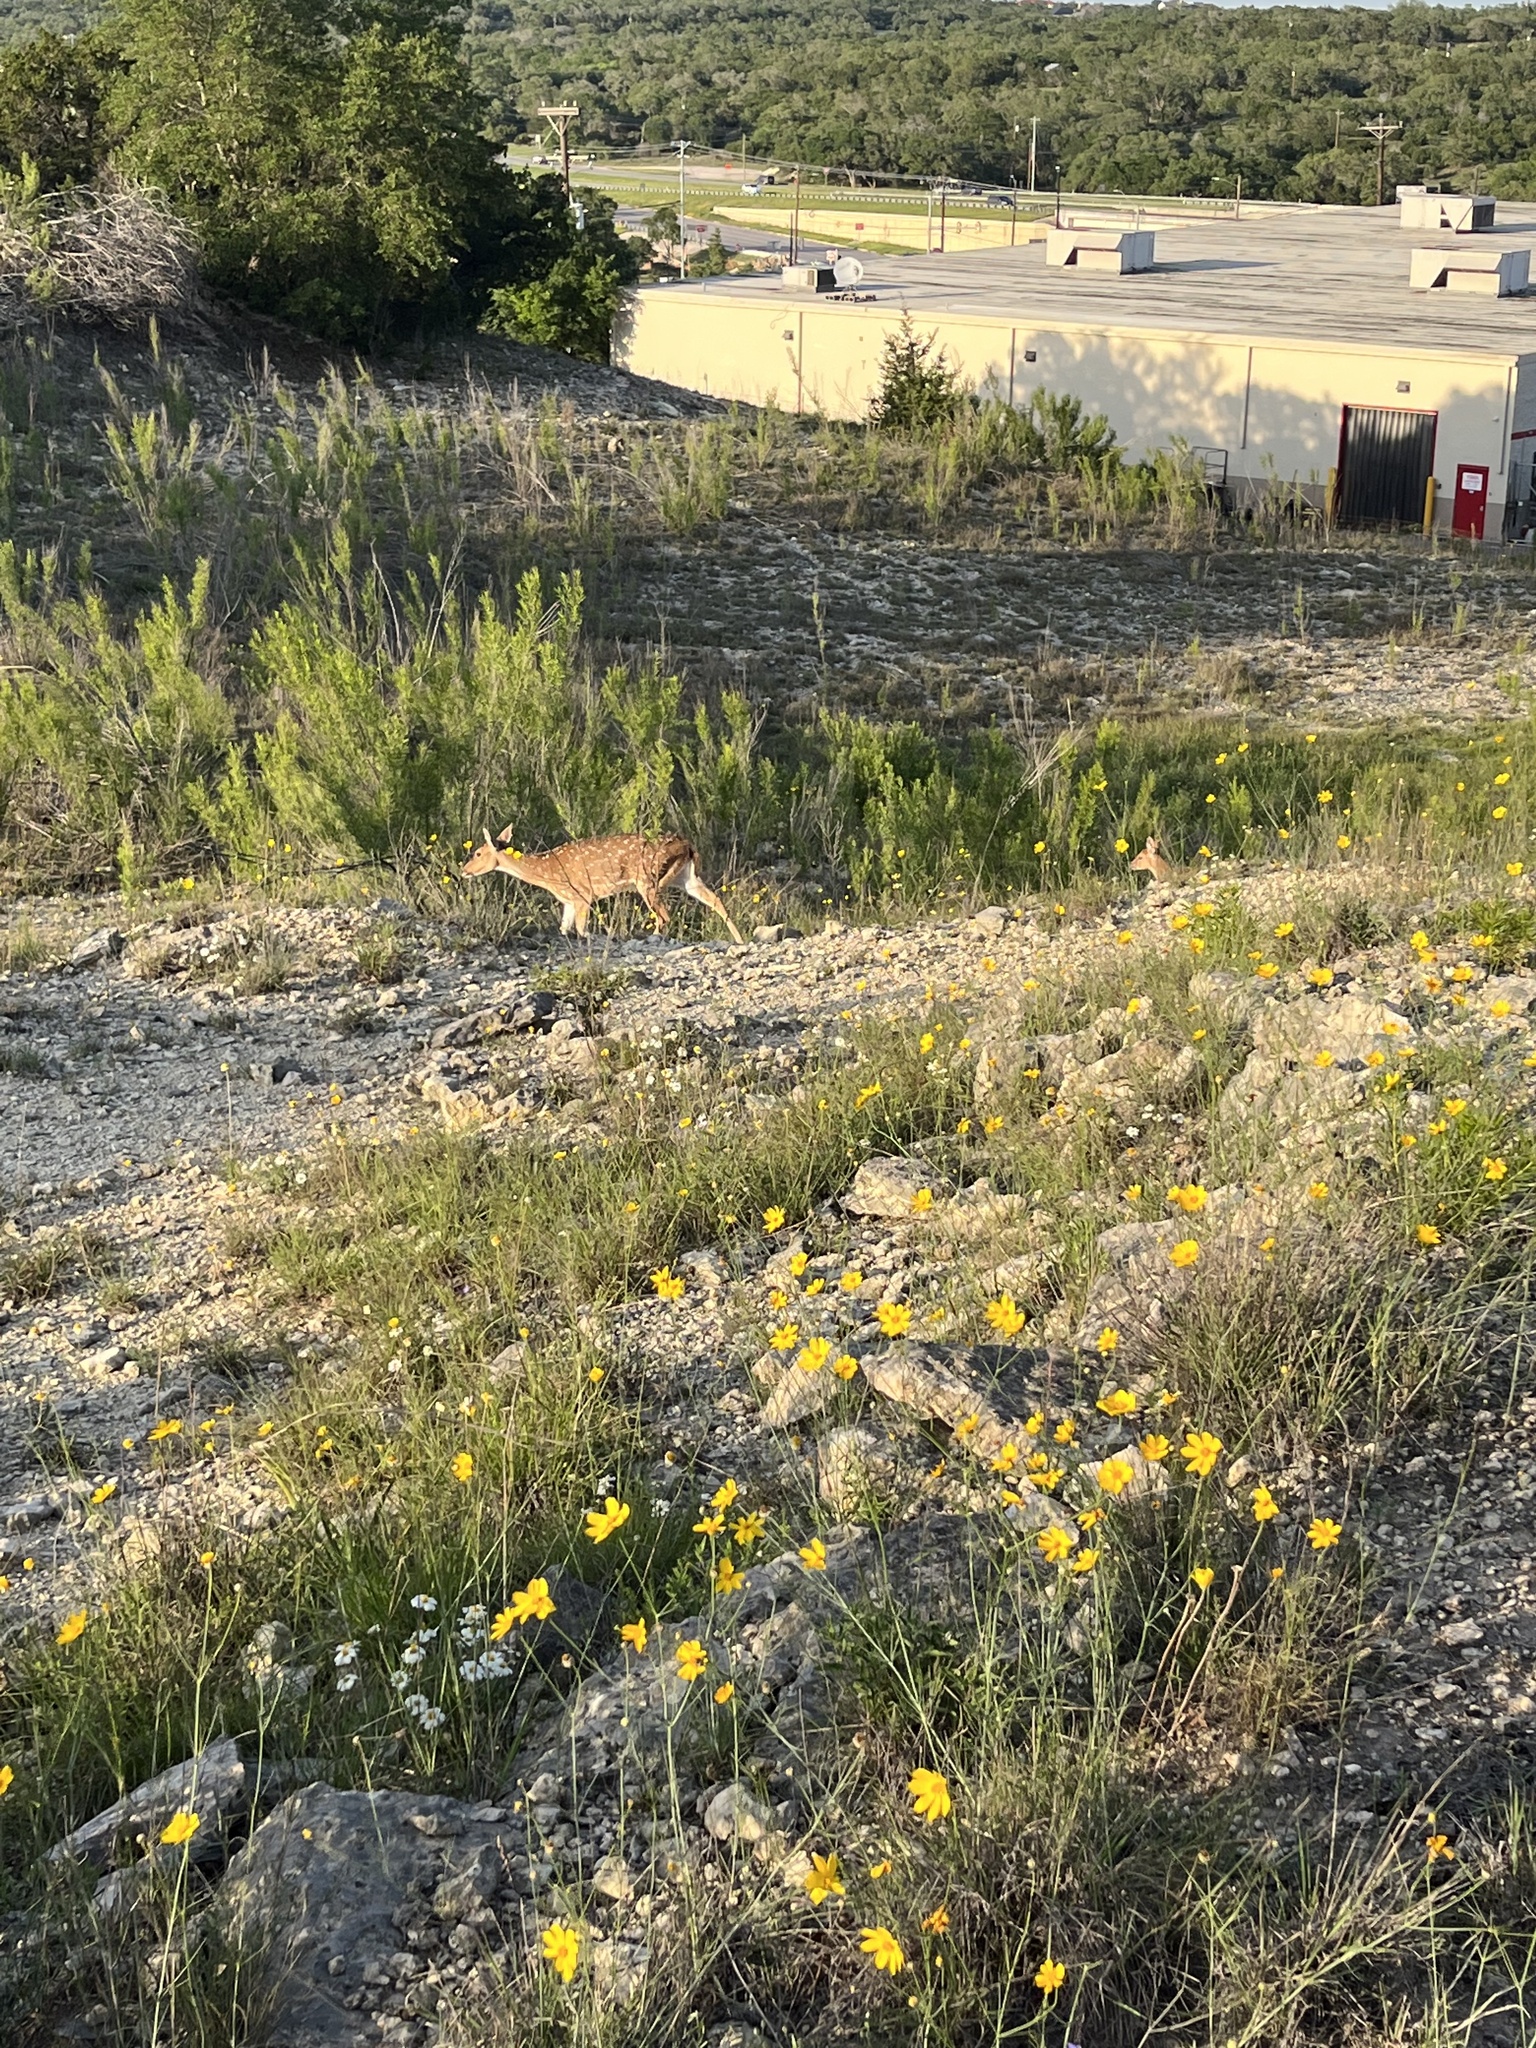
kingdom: Animalia
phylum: Chordata
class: Mammalia
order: Artiodactyla
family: Cervidae
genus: Axis
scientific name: Axis axis
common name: Chital
